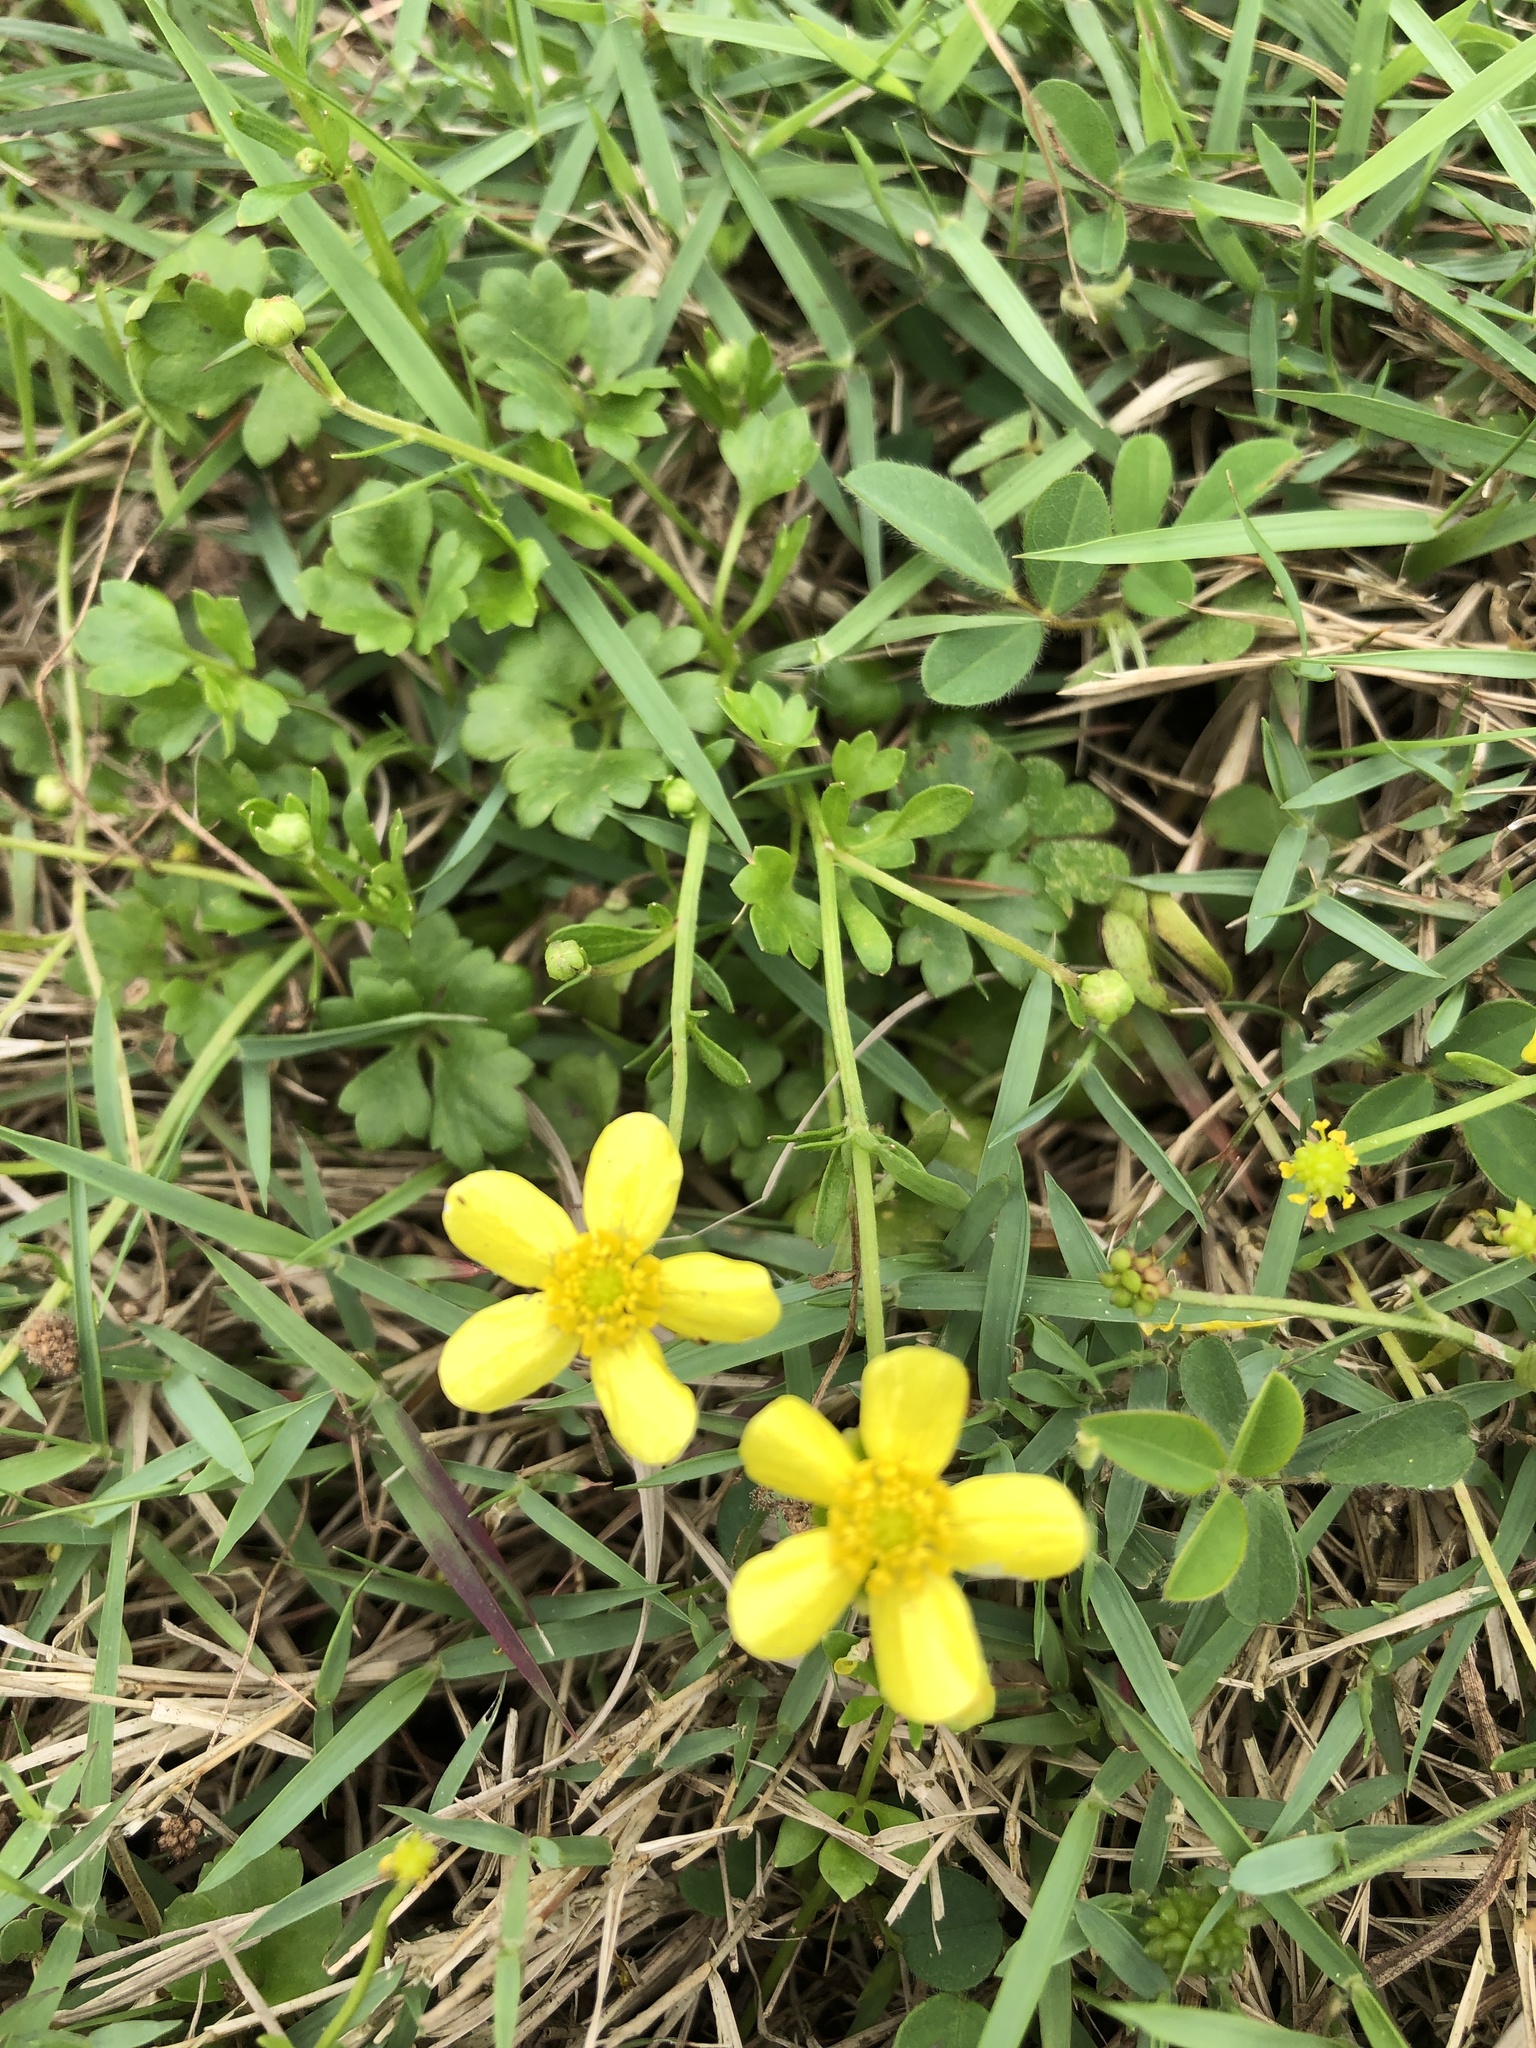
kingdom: Plantae
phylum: Tracheophyta
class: Magnoliopsida
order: Ranunculales
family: Ranunculaceae
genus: Ranunculus
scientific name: Ranunculus ternatus
